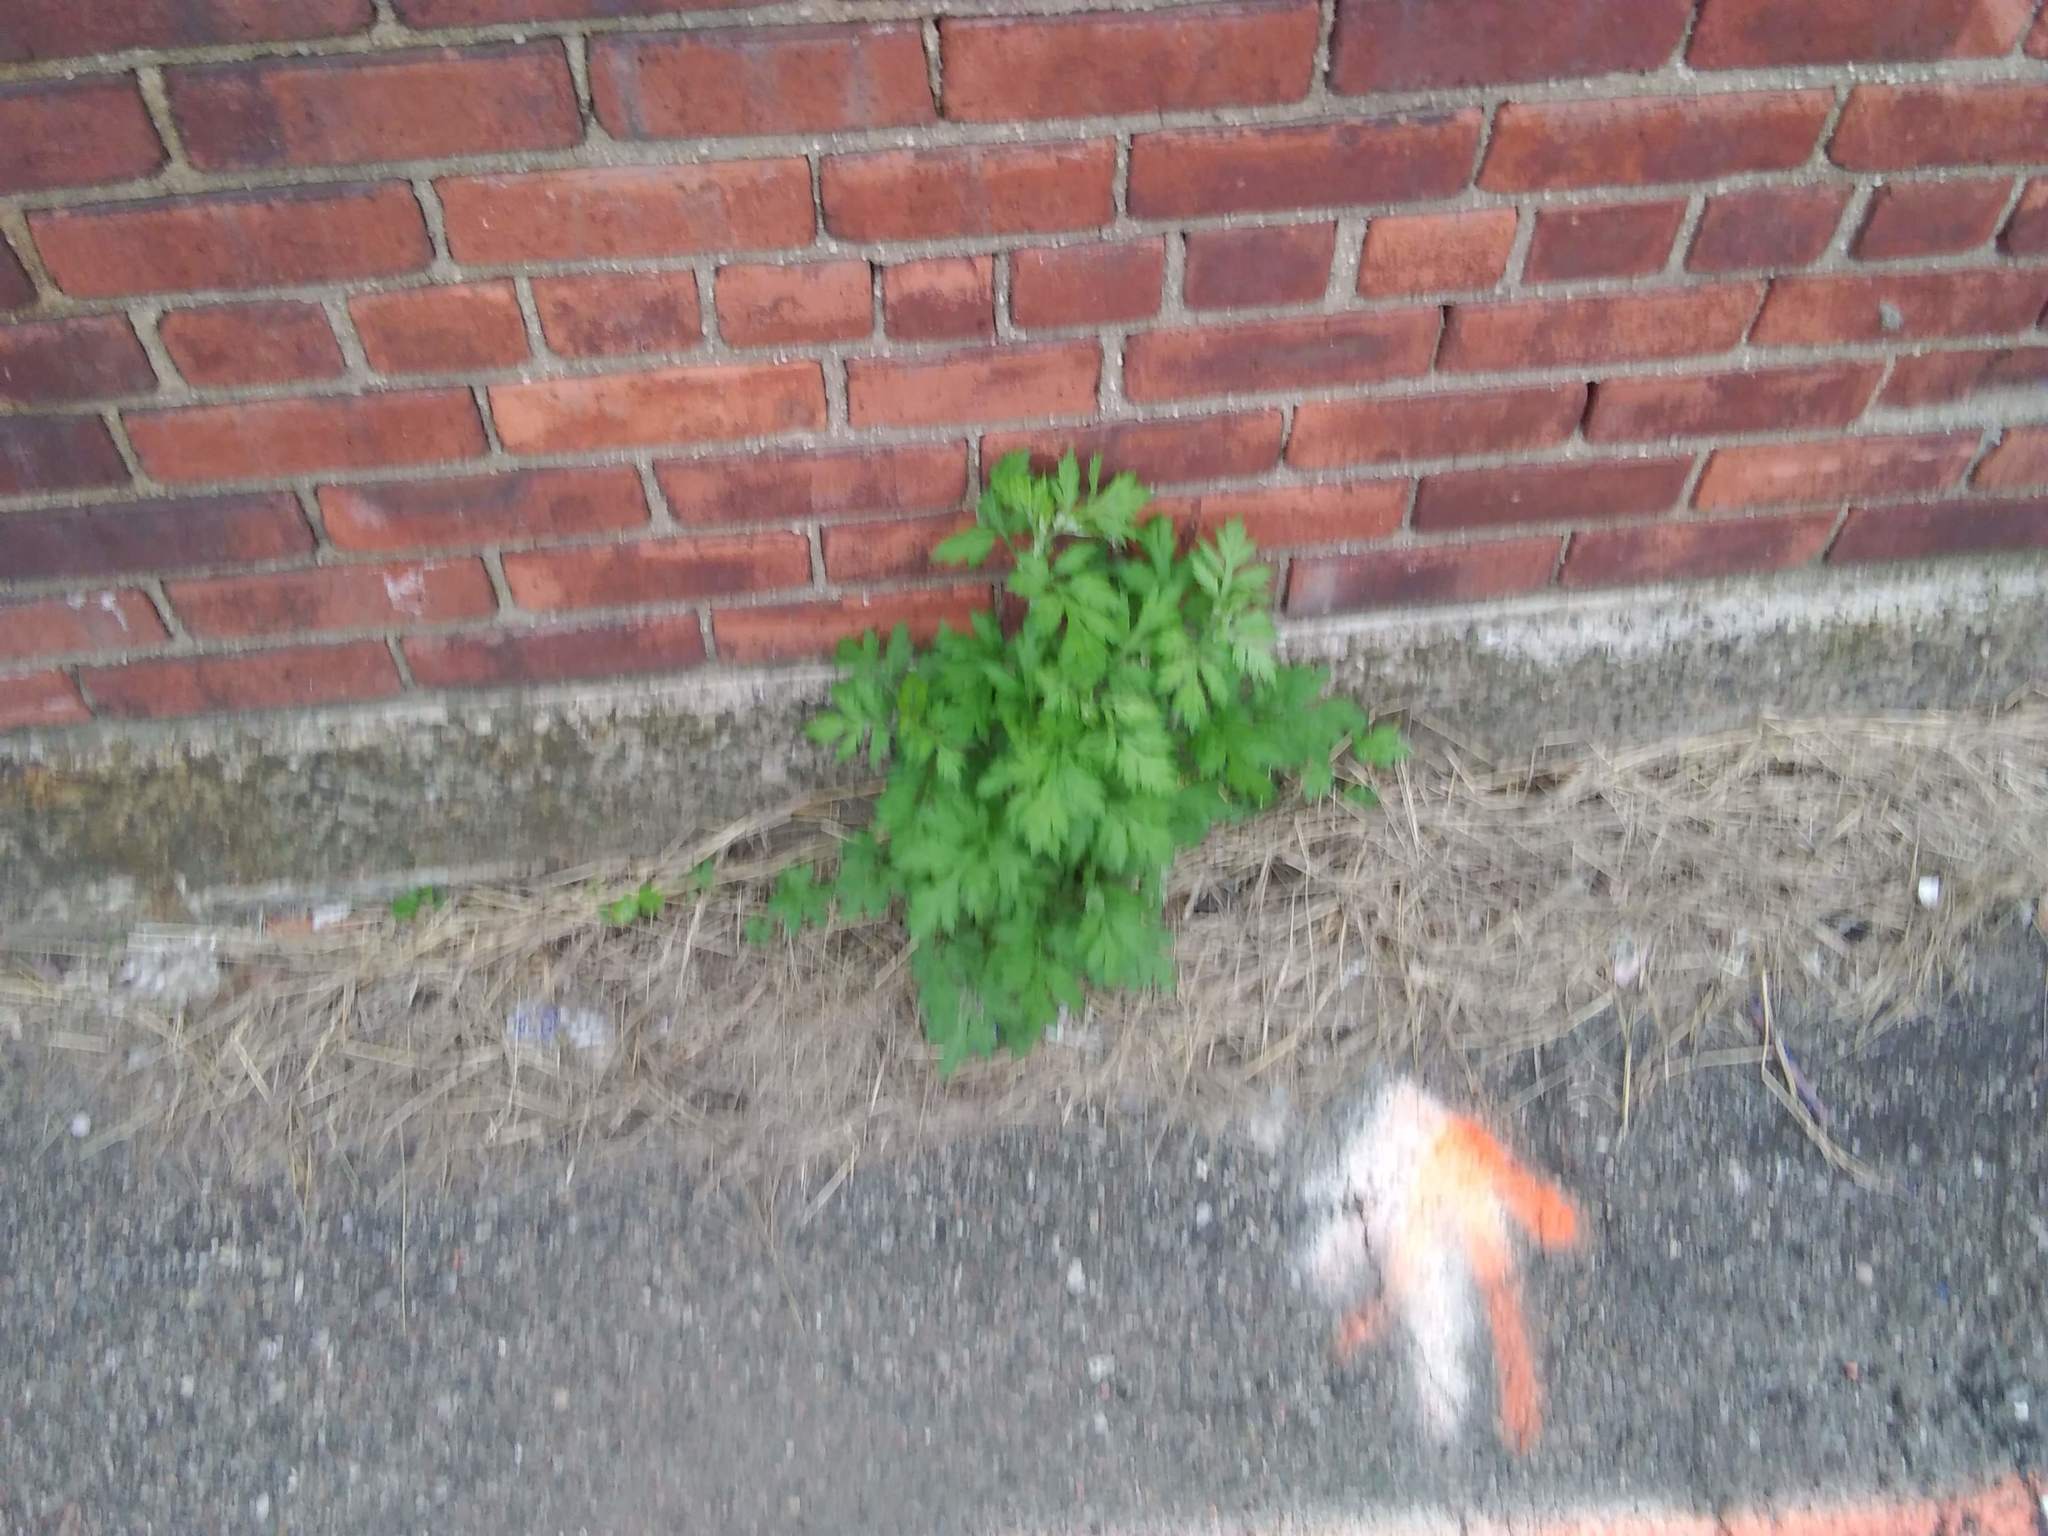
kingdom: Plantae
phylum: Tracheophyta
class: Magnoliopsida
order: Asterales
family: Asteraceae
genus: Artemisia
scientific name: Artemisia vulgaris
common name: Mugwort
